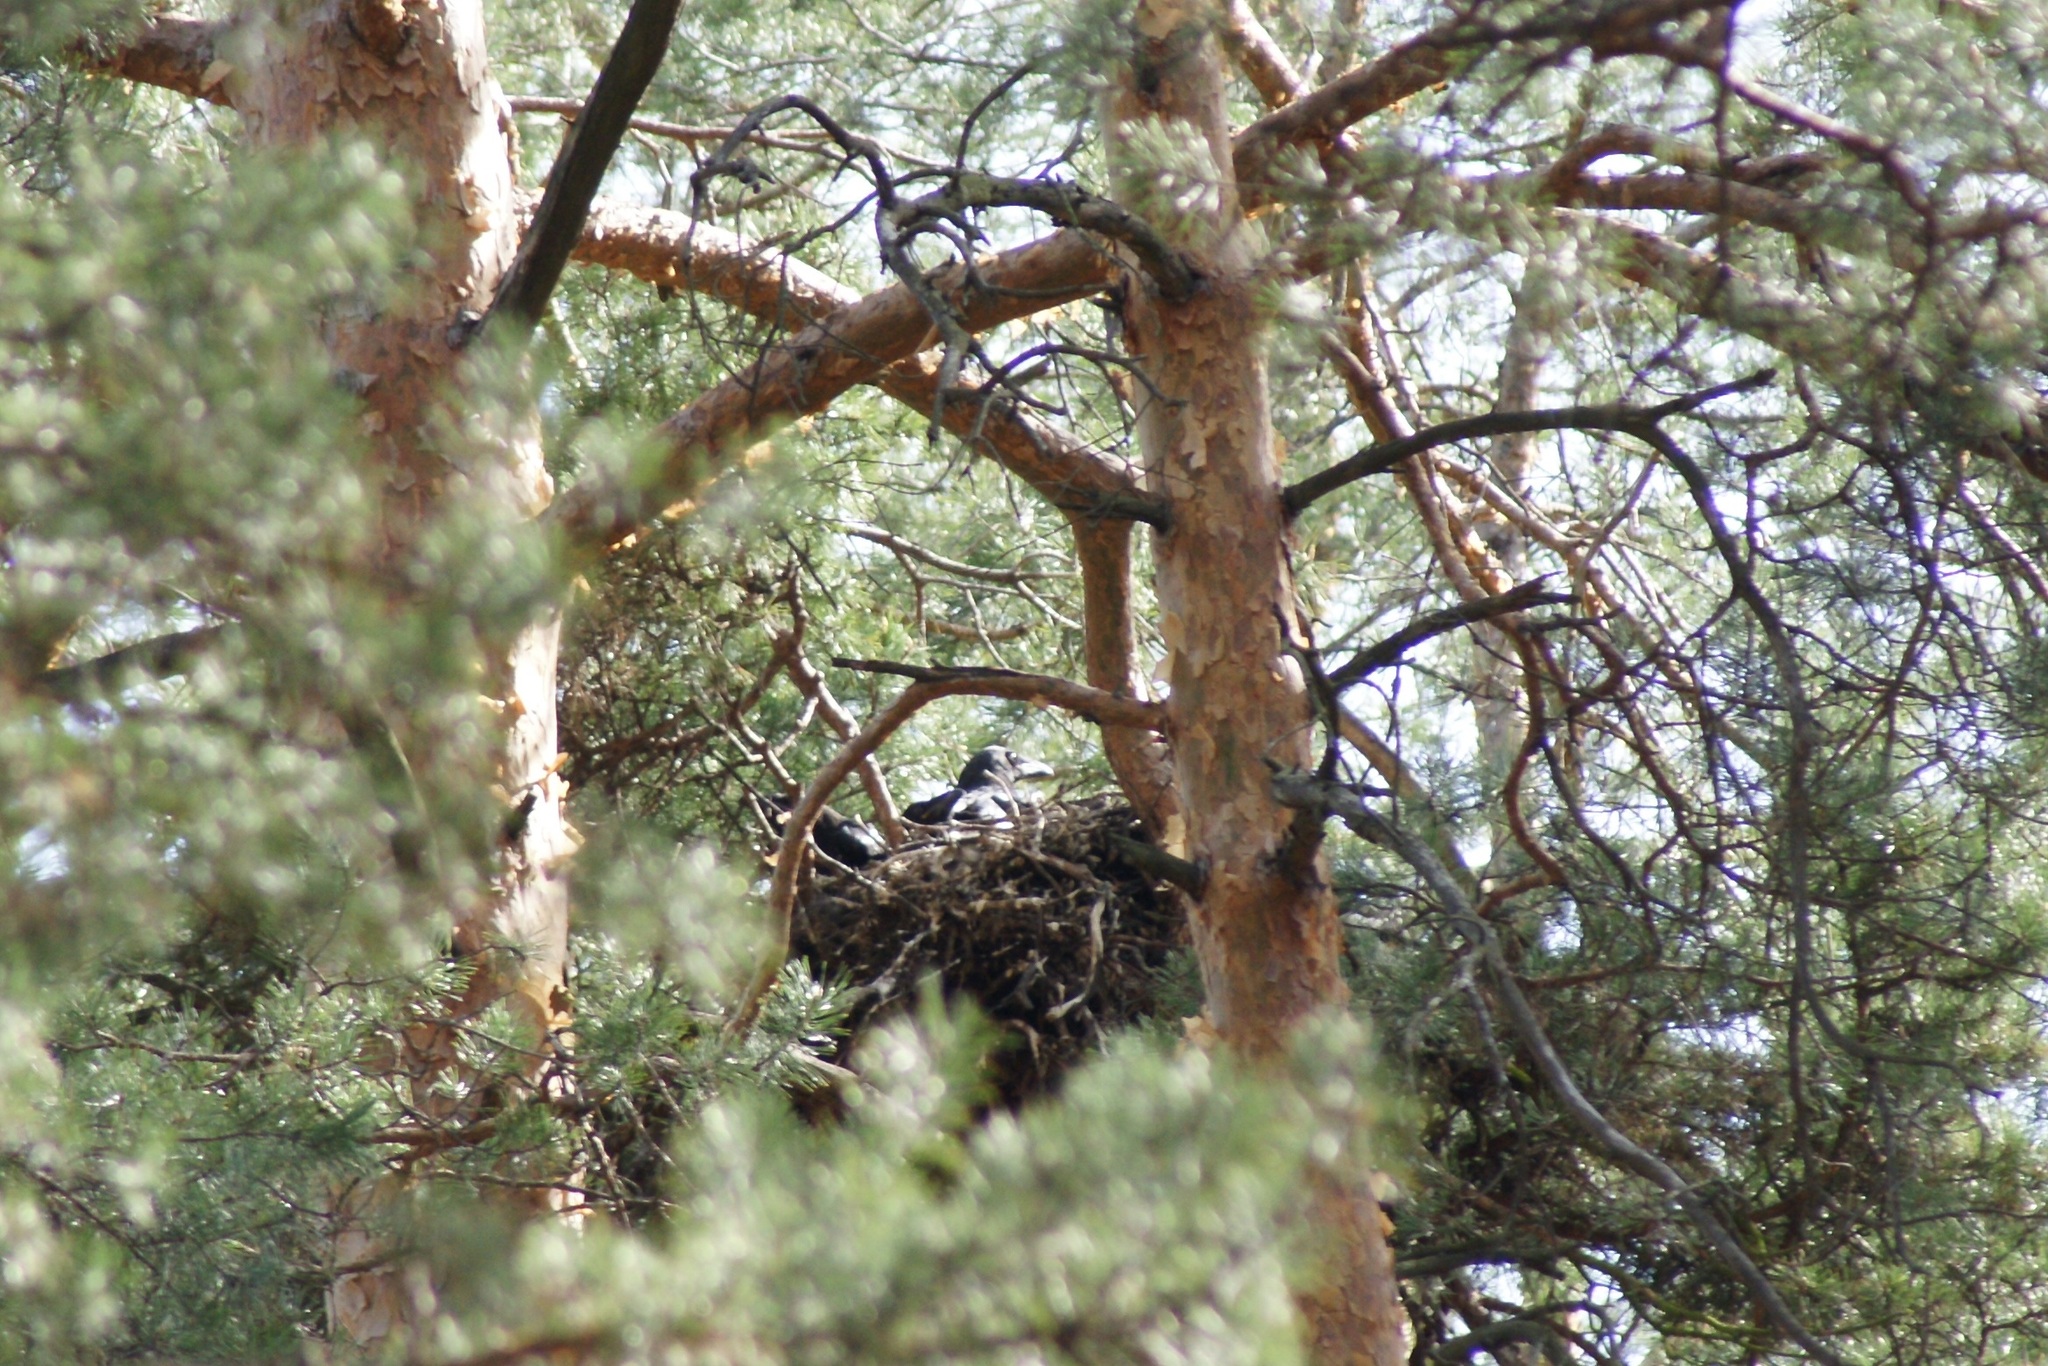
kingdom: Animalia
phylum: Chordata
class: Aves
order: Passeriformes
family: Corvidae
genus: Corvus
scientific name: Corvus corax
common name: Common raven
